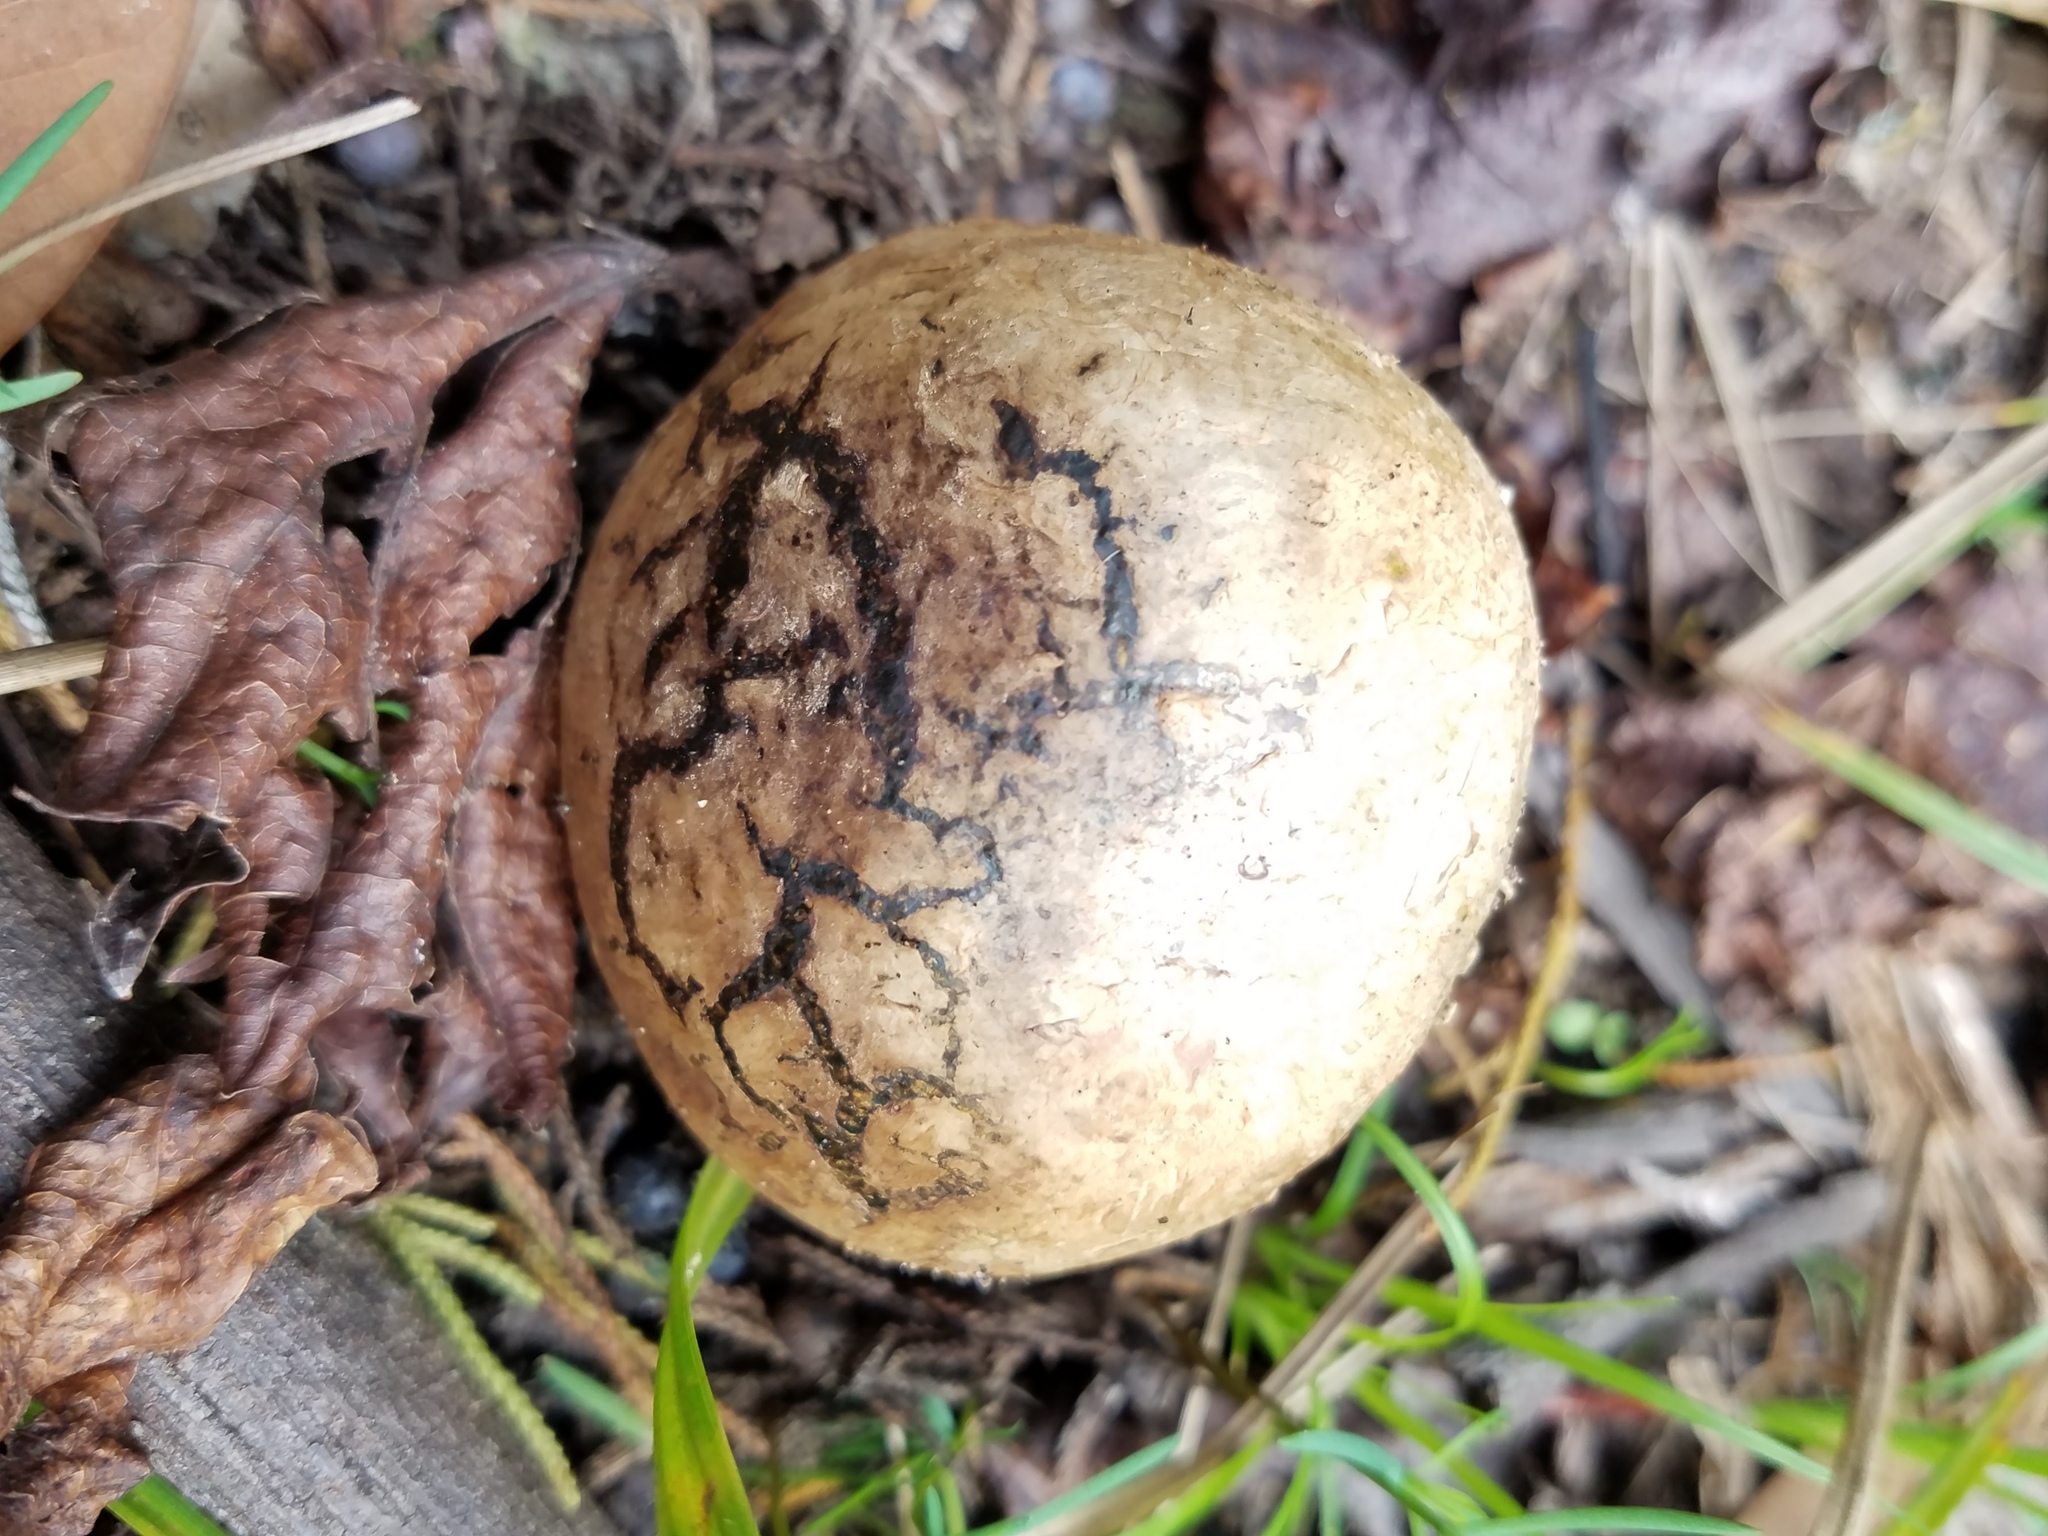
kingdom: Fungi
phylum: Basidiomycota
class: Agaricomycetes
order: Boletales
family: Sclerodermataceae
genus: Pisolithus
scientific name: Pisolithus arhizus
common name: Dyeball
